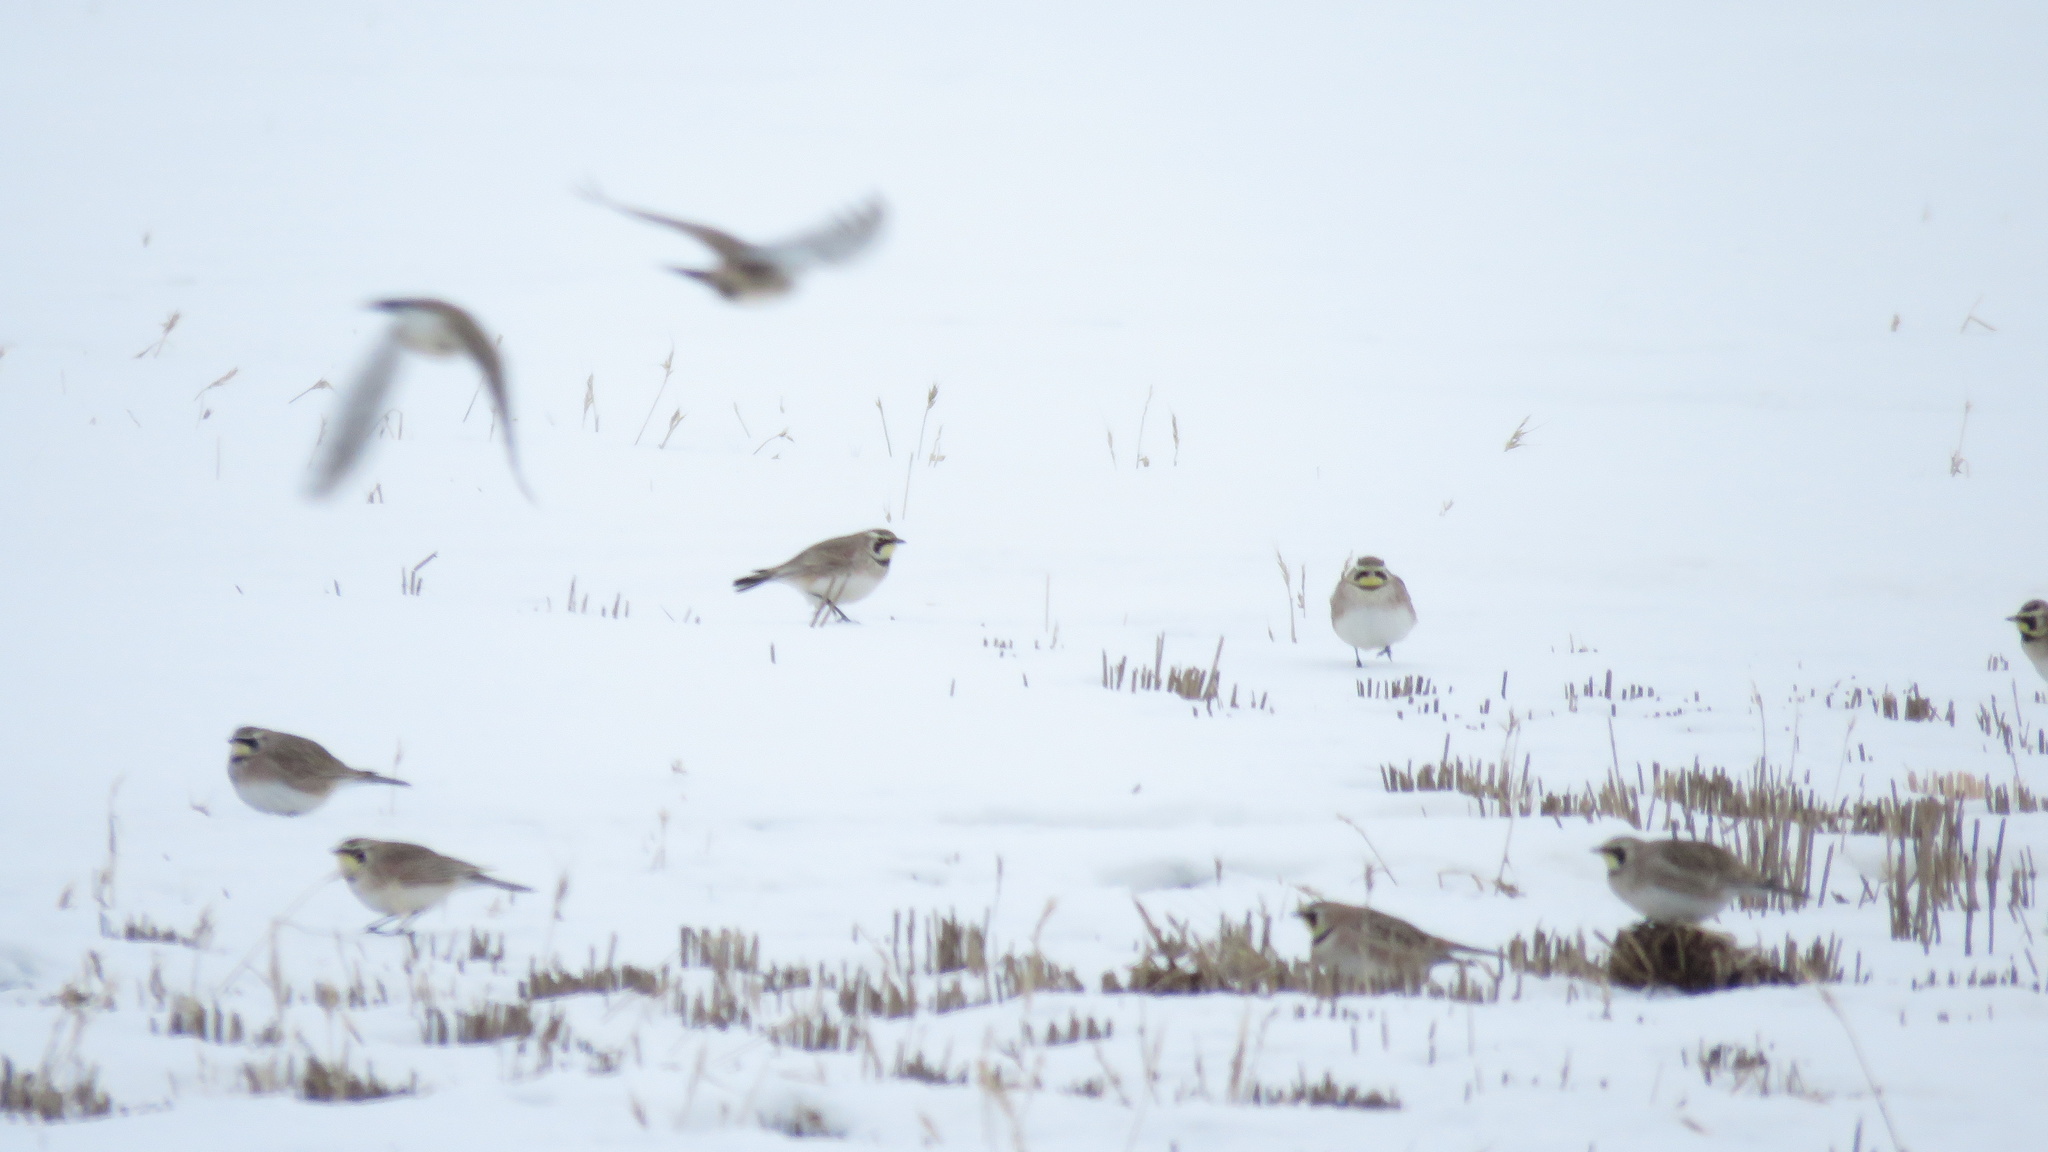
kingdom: Animalia
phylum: Chordata
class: Aves
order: Passeriformes
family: Alaudidae
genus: Eremophila
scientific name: Eremophila alpestris
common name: Horned lark
